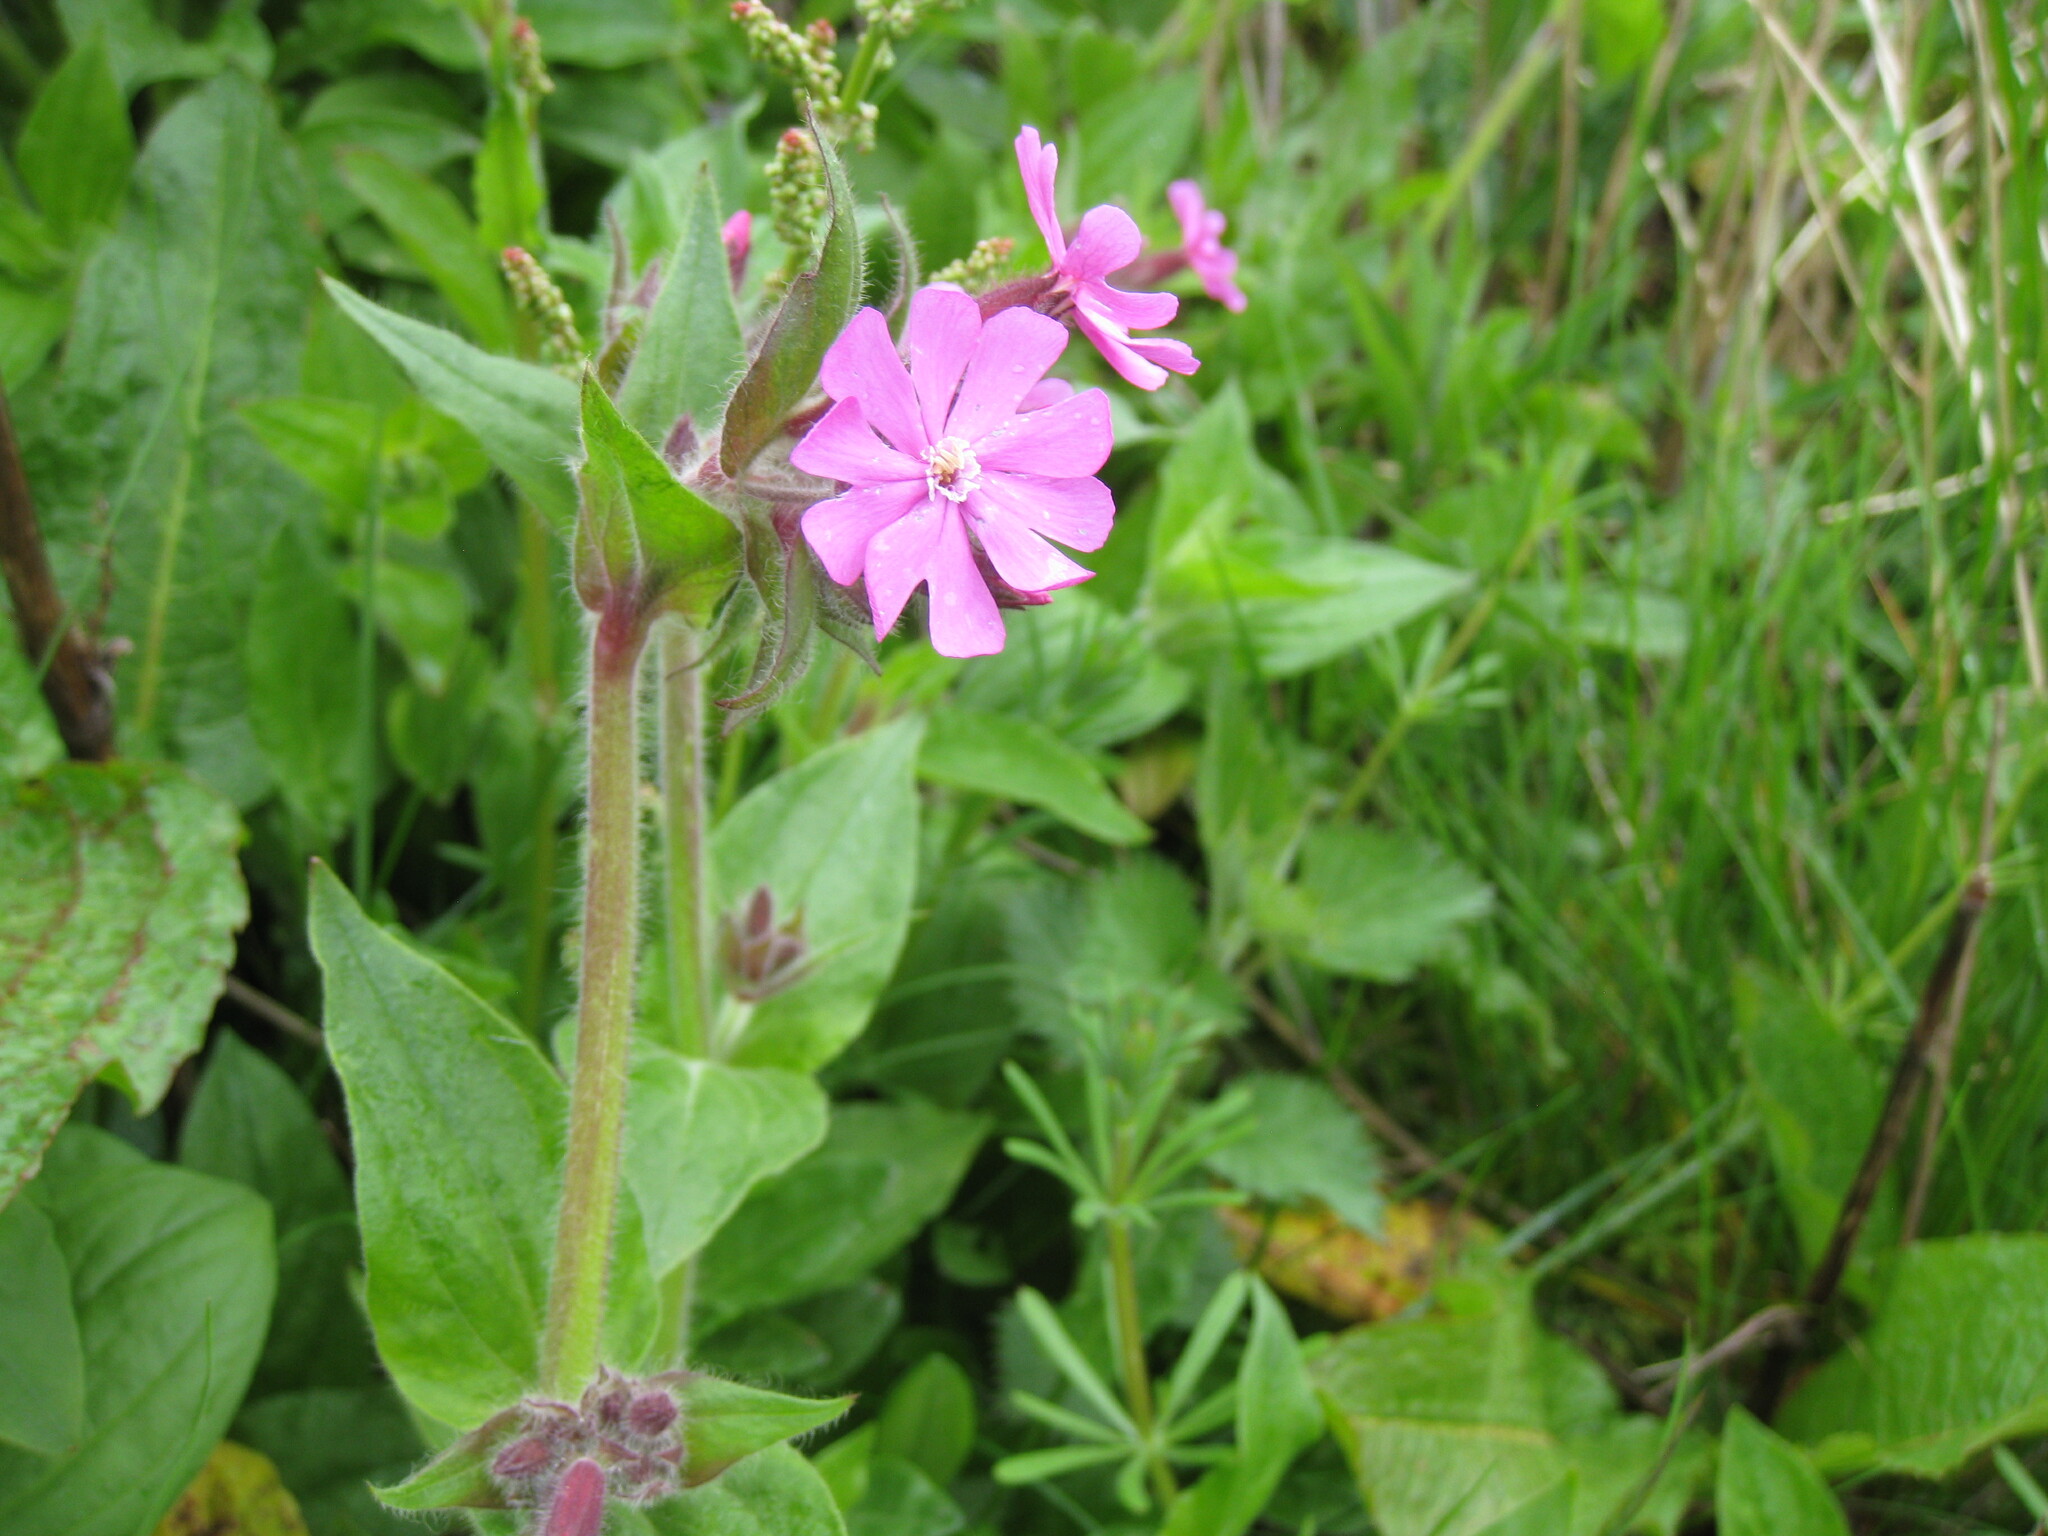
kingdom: Plantae
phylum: Tracheophyta
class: Magnoliopsida
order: Caryophyllales
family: Caryophyllaceae
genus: Silene
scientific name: Silene dioica
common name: Red campion
